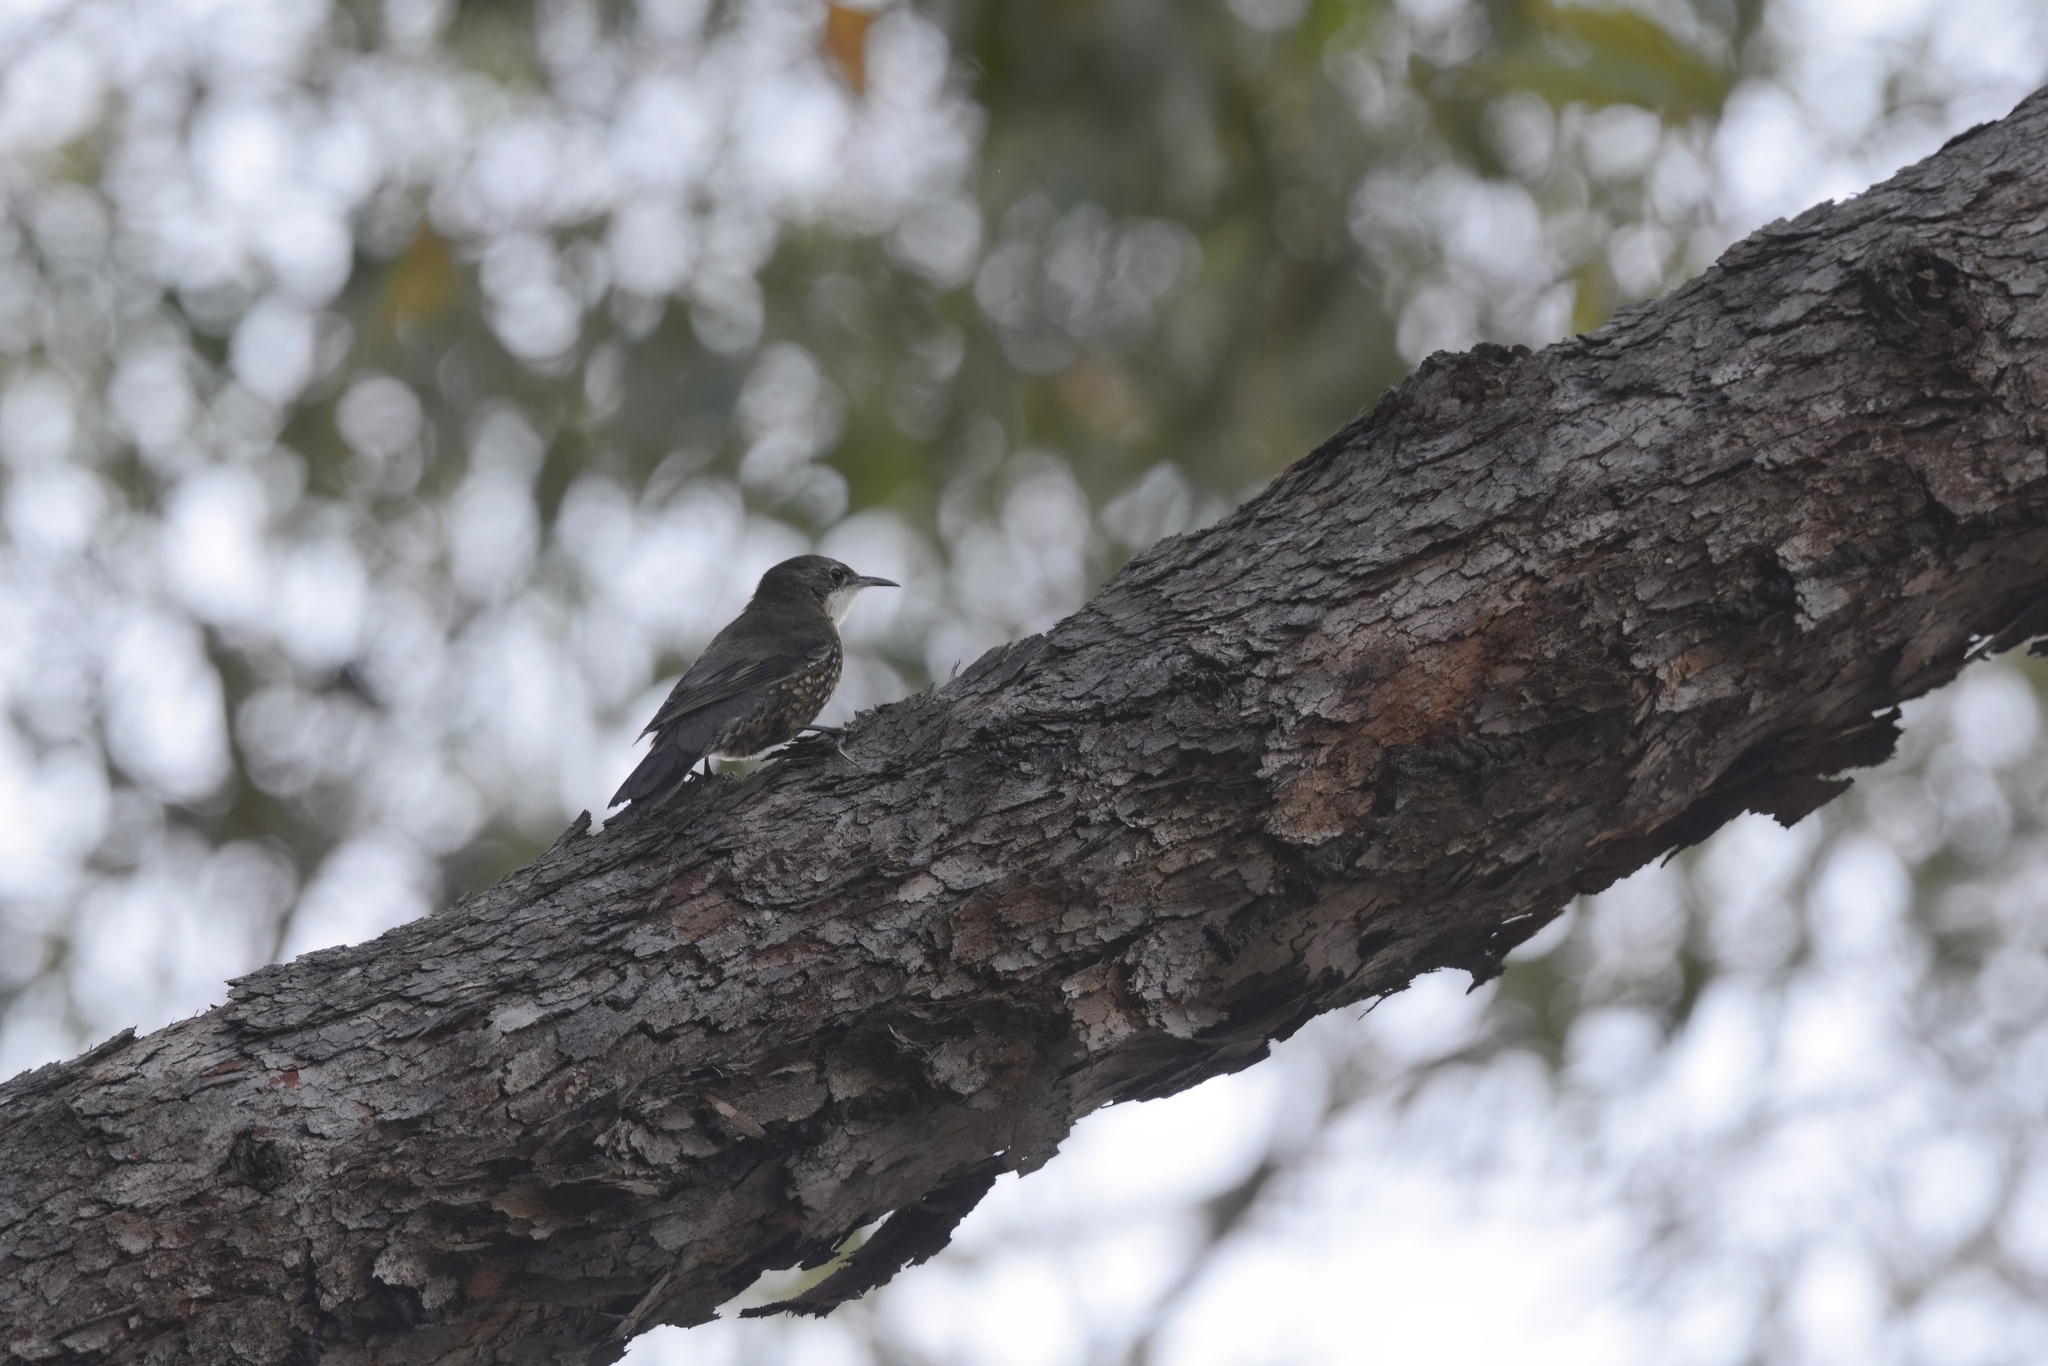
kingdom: Animalia
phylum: Chordata
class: Aves
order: Passeriformes
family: Climacteridae
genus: Cormobates
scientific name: Cormobates leucophaea
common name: White-throated treecreeper
